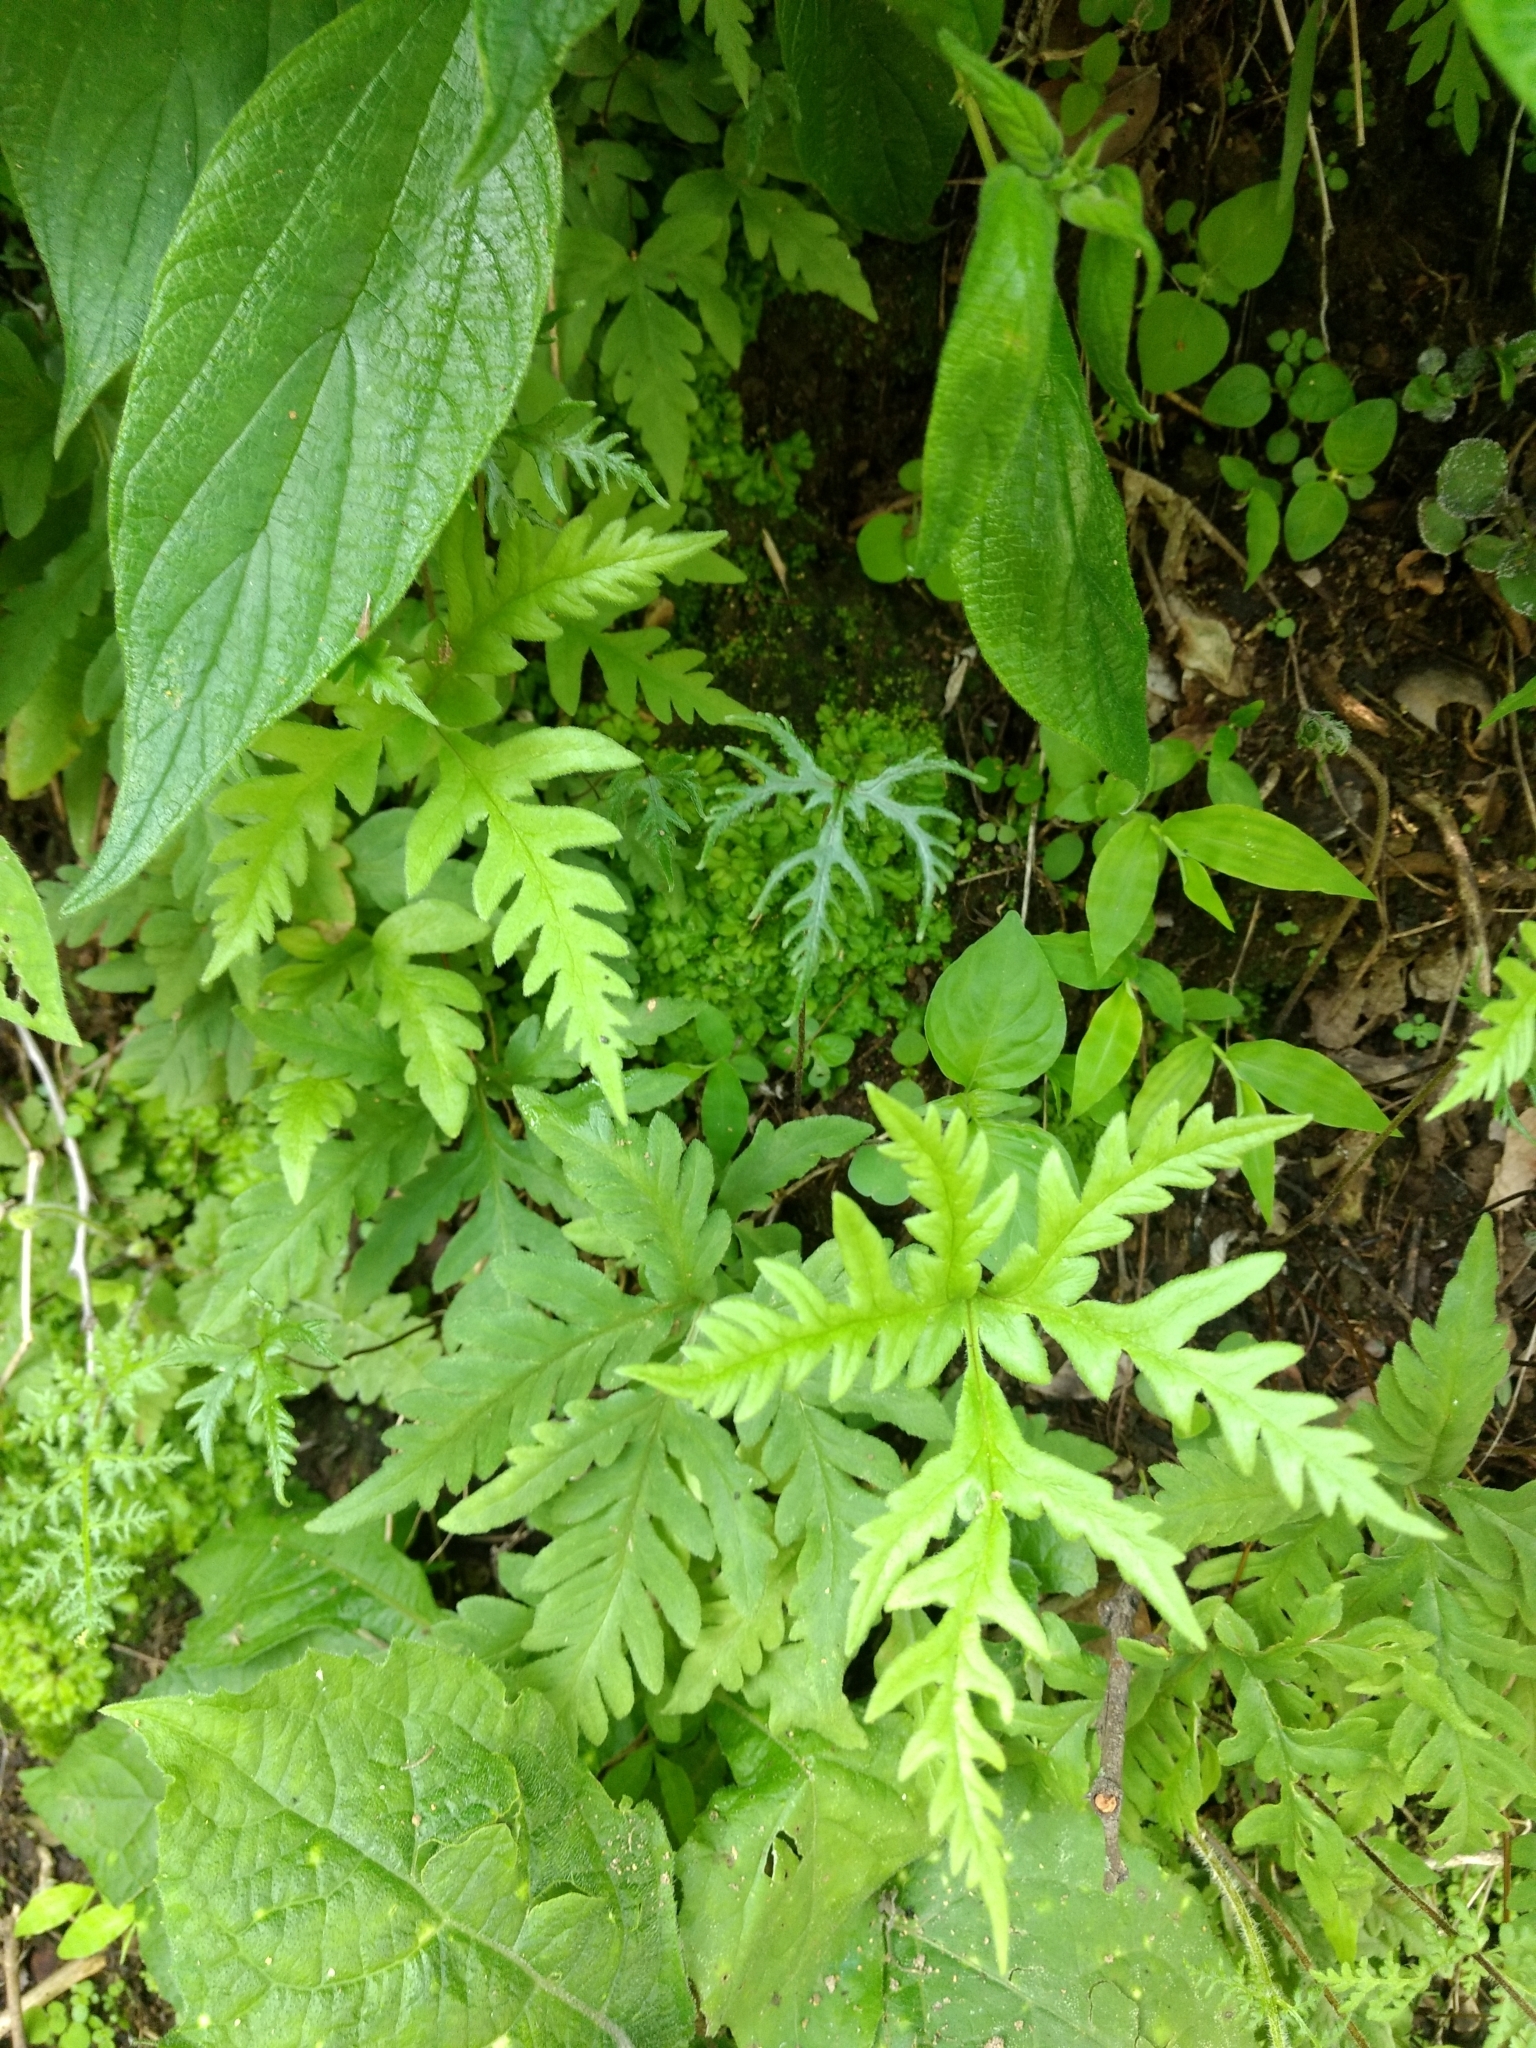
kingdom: Plantae
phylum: Tracheophyta
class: Polypodiopsida
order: Polypodiales
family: Pteridaceae
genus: Bommeria
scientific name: Bommeria pedata
